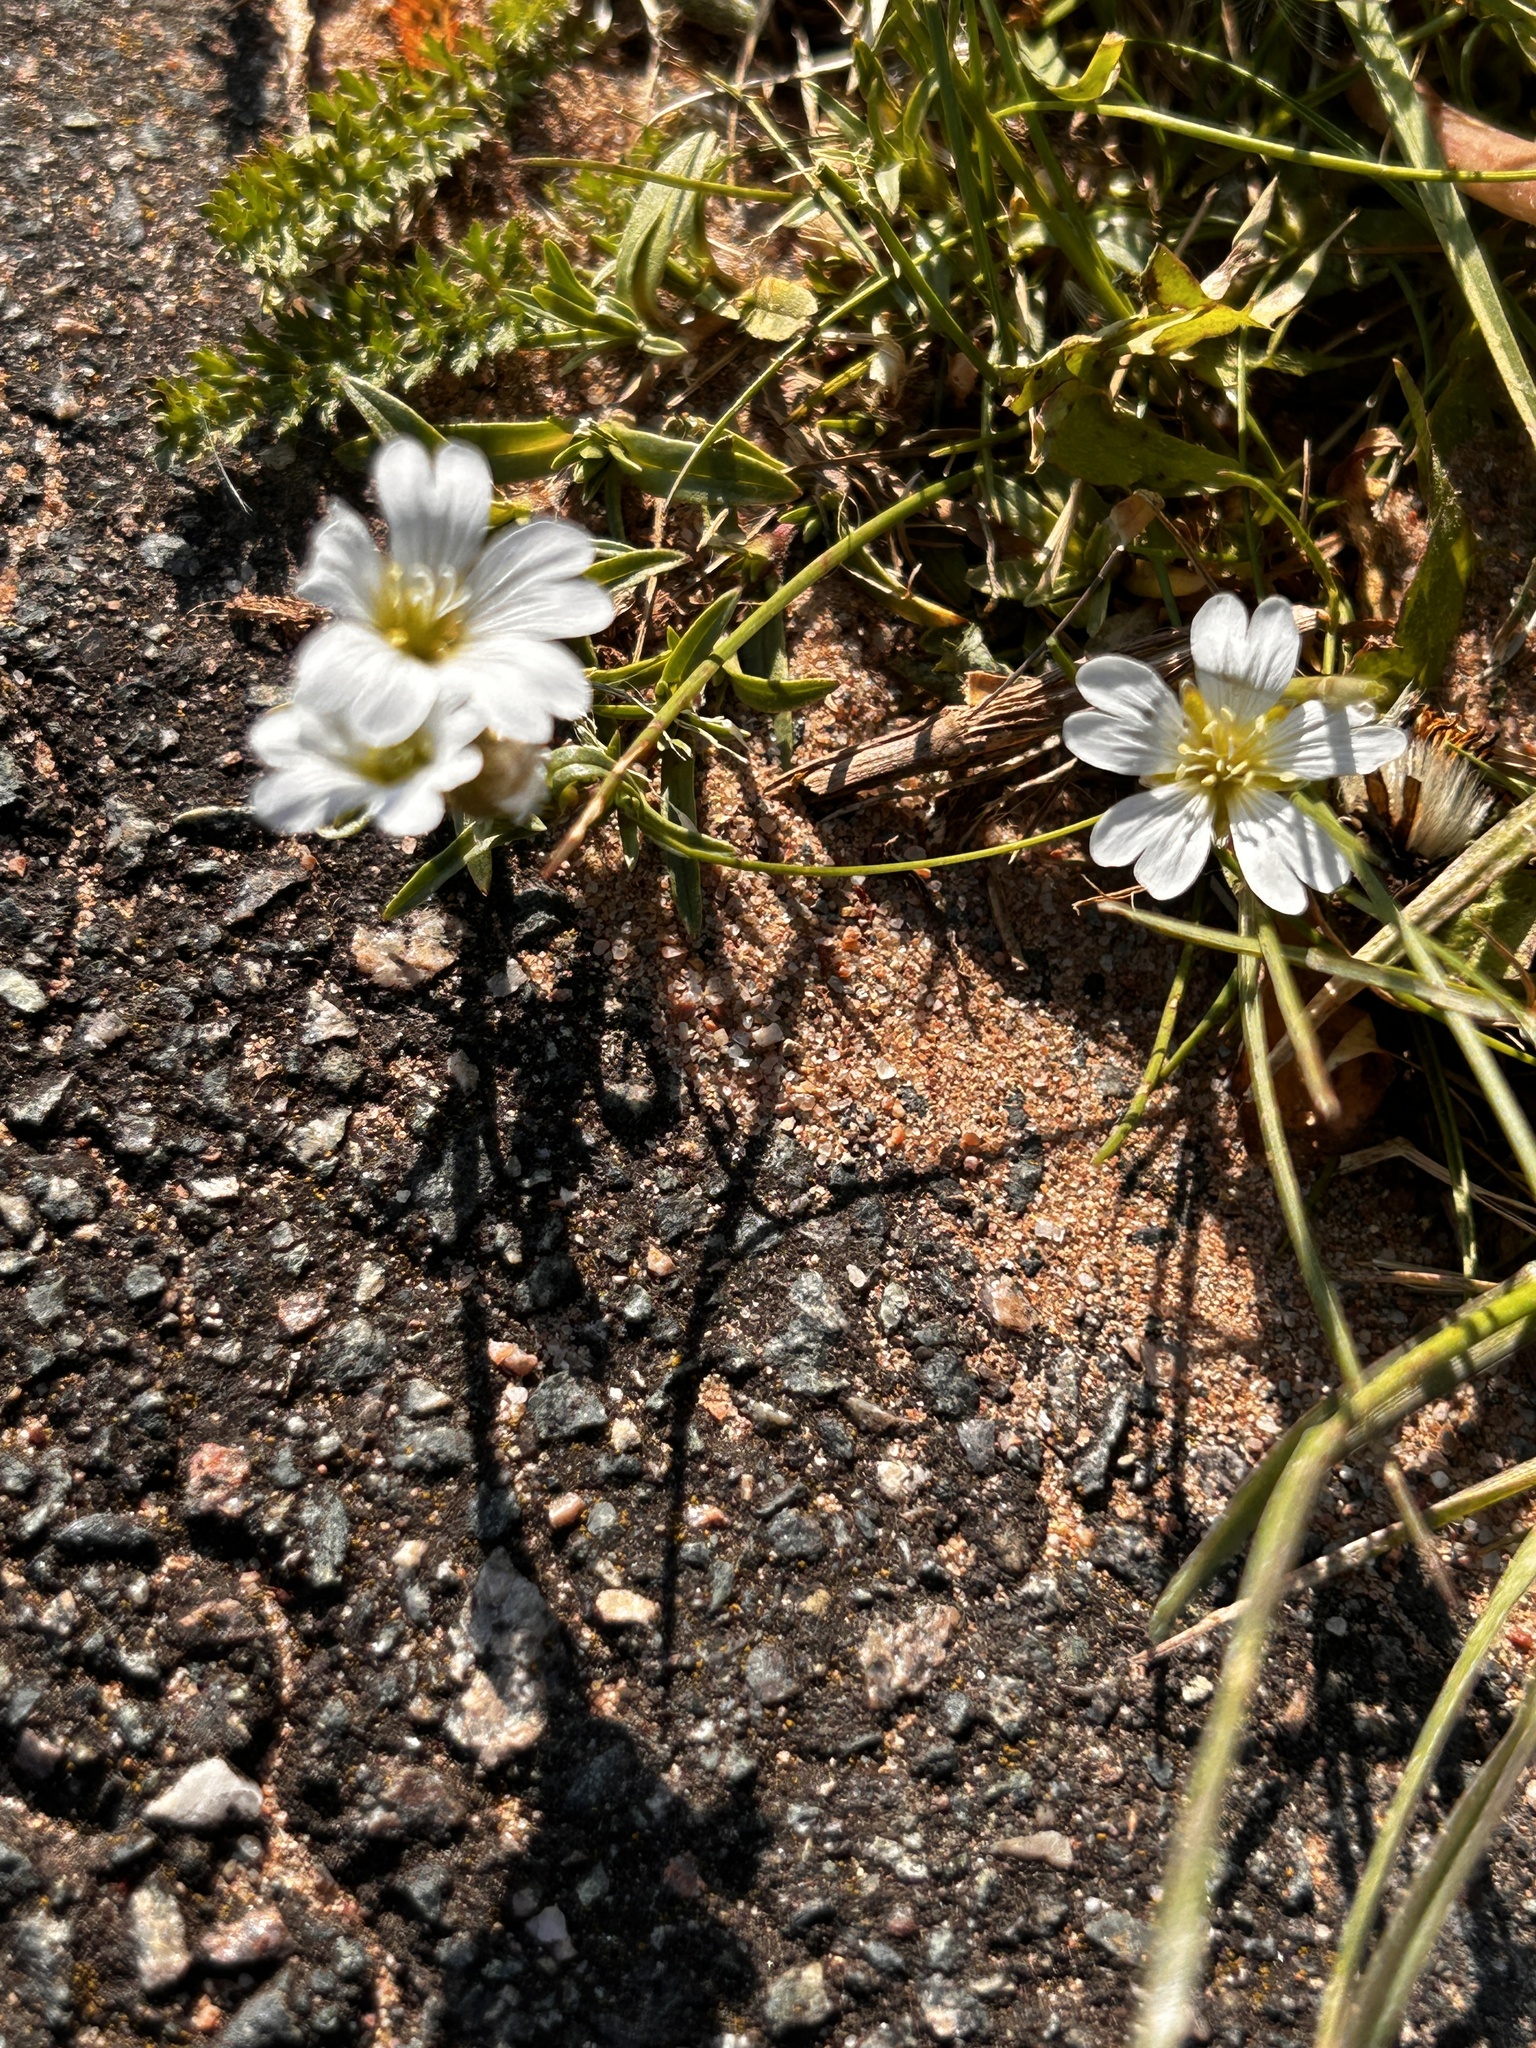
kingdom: Plantae
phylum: Tracheophyta
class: Magnoliopsida
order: Caryophyllales
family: Caryophyllaceae
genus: Cerastium
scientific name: Cerastium arvense
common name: Field mouse-ear
